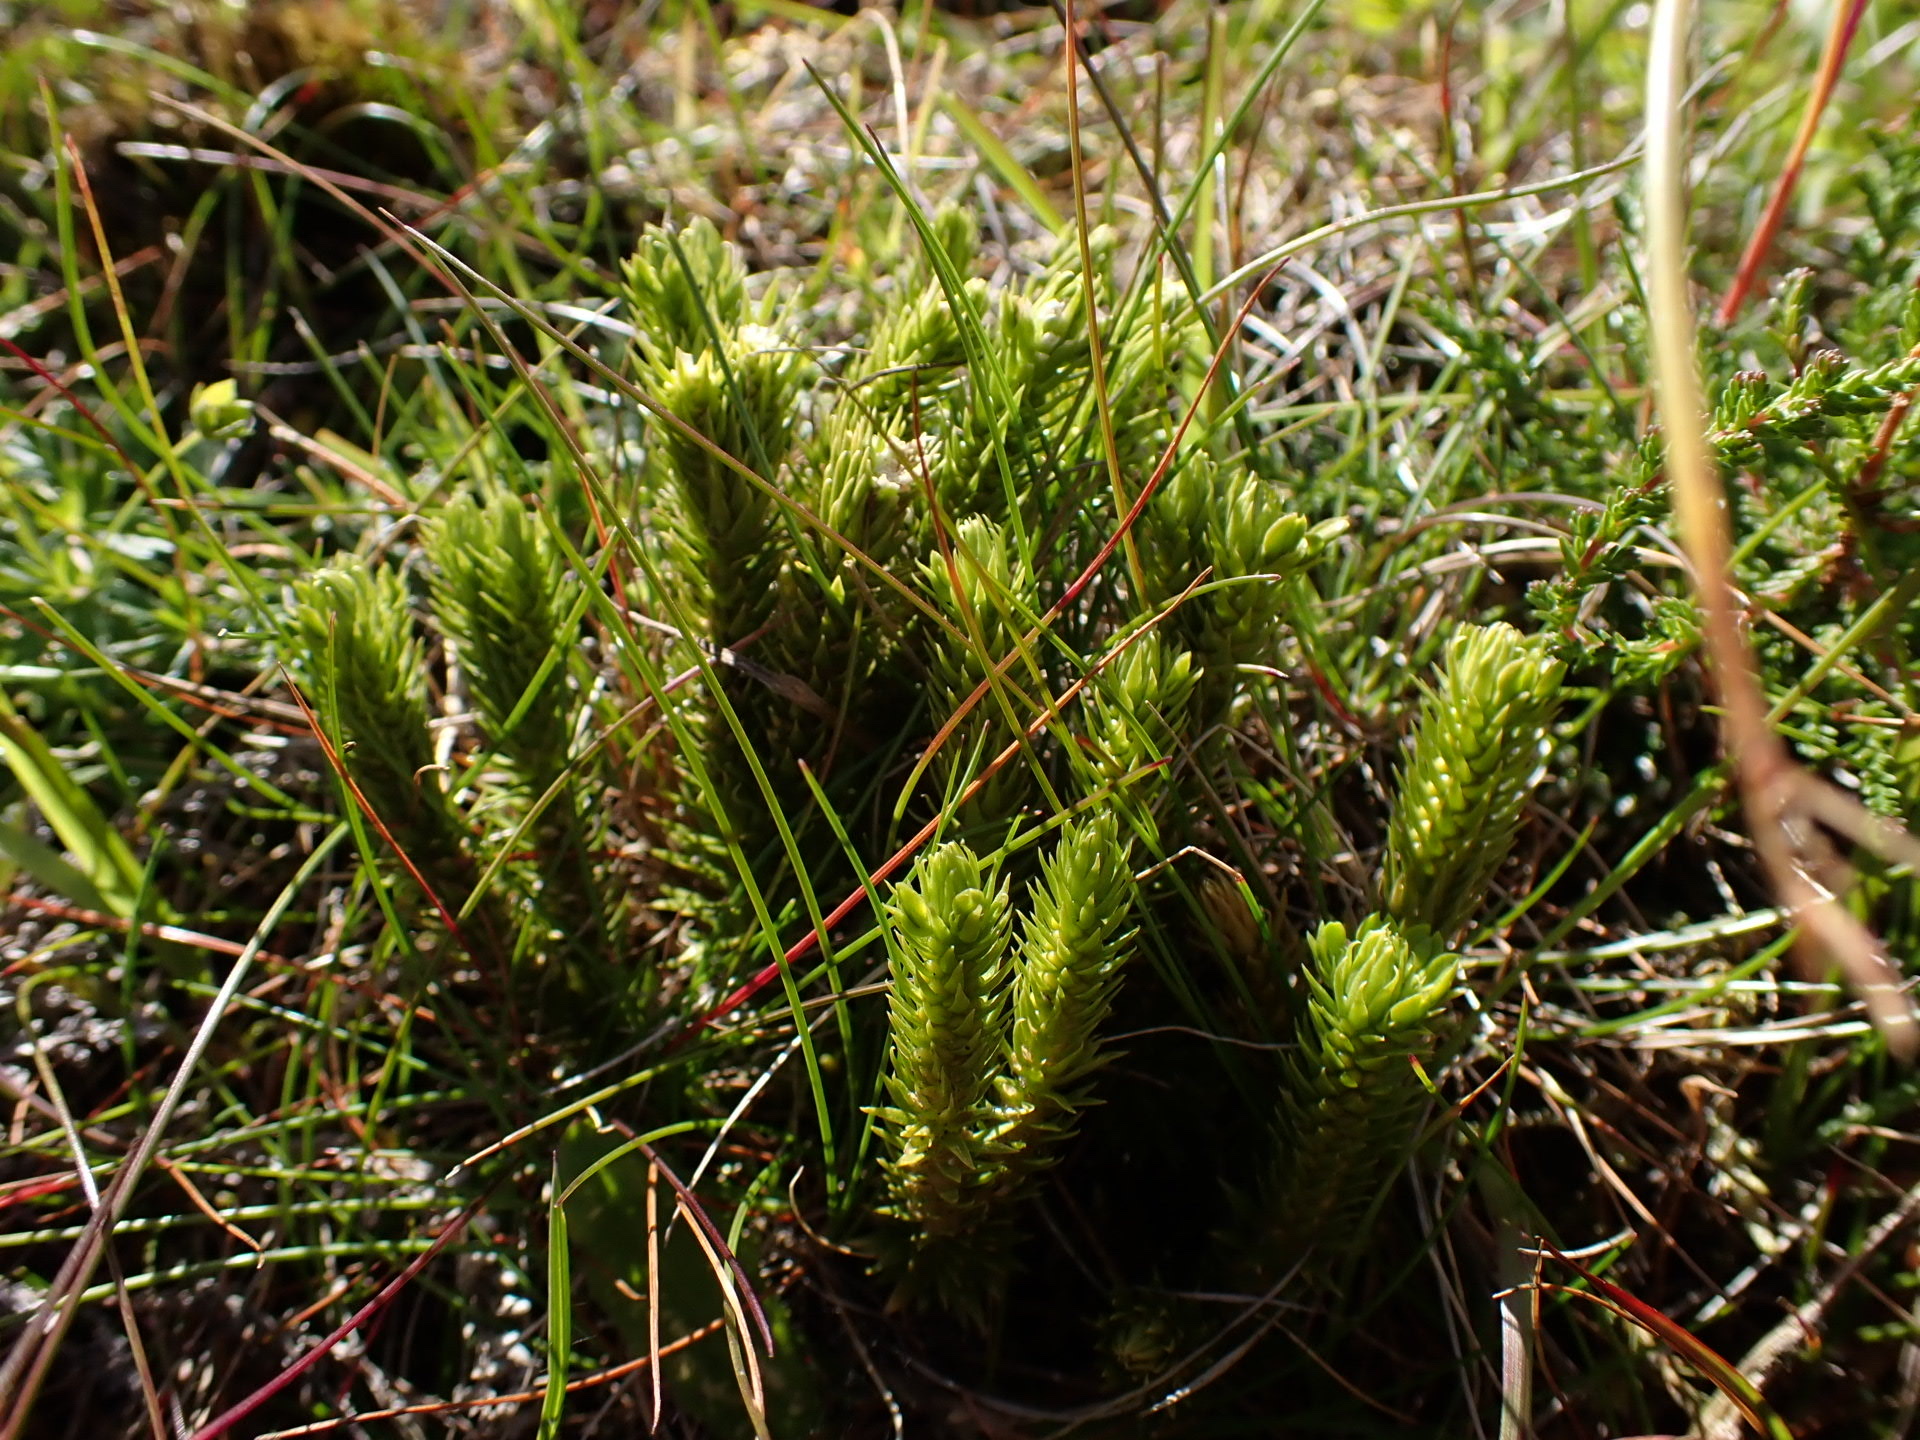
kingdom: Plantae
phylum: Tracheophyta
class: Lycopodiopsida
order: Lycopodiales
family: Lycopodiaceae
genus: Huperzia
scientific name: Huperzia selago
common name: Northern firmoss
